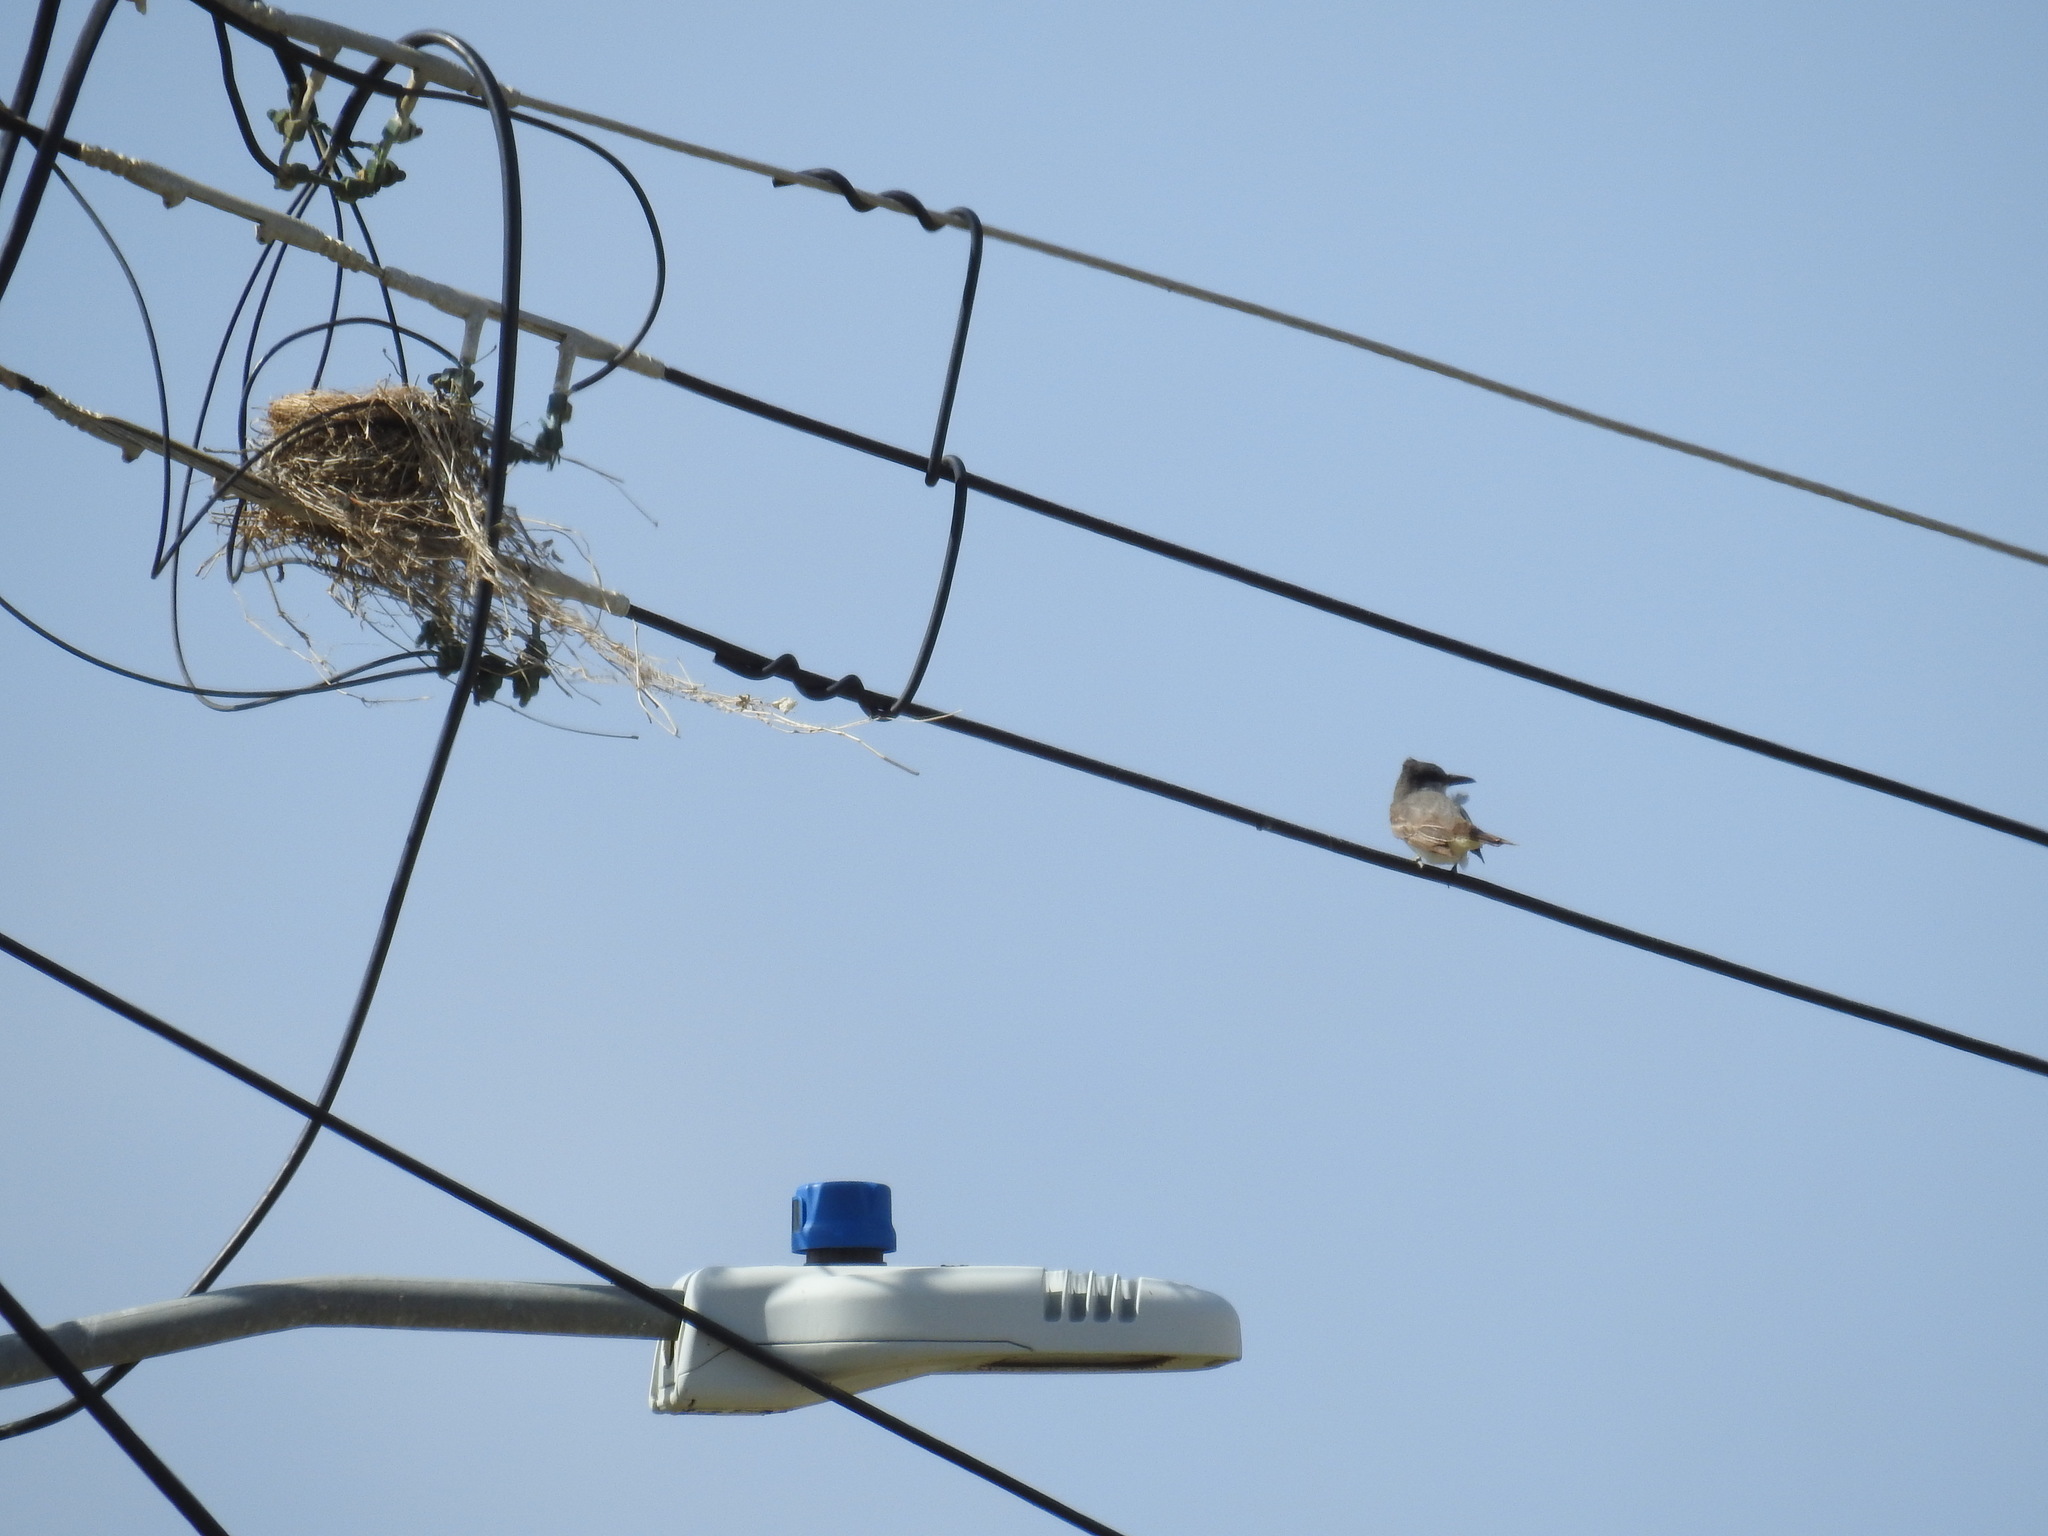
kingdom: Animalia
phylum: Chordata
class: Aves
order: Passeriformes
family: Tyrannidae
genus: Tyrannus
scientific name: Tyrannus dominicensis
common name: Gray kingbird
